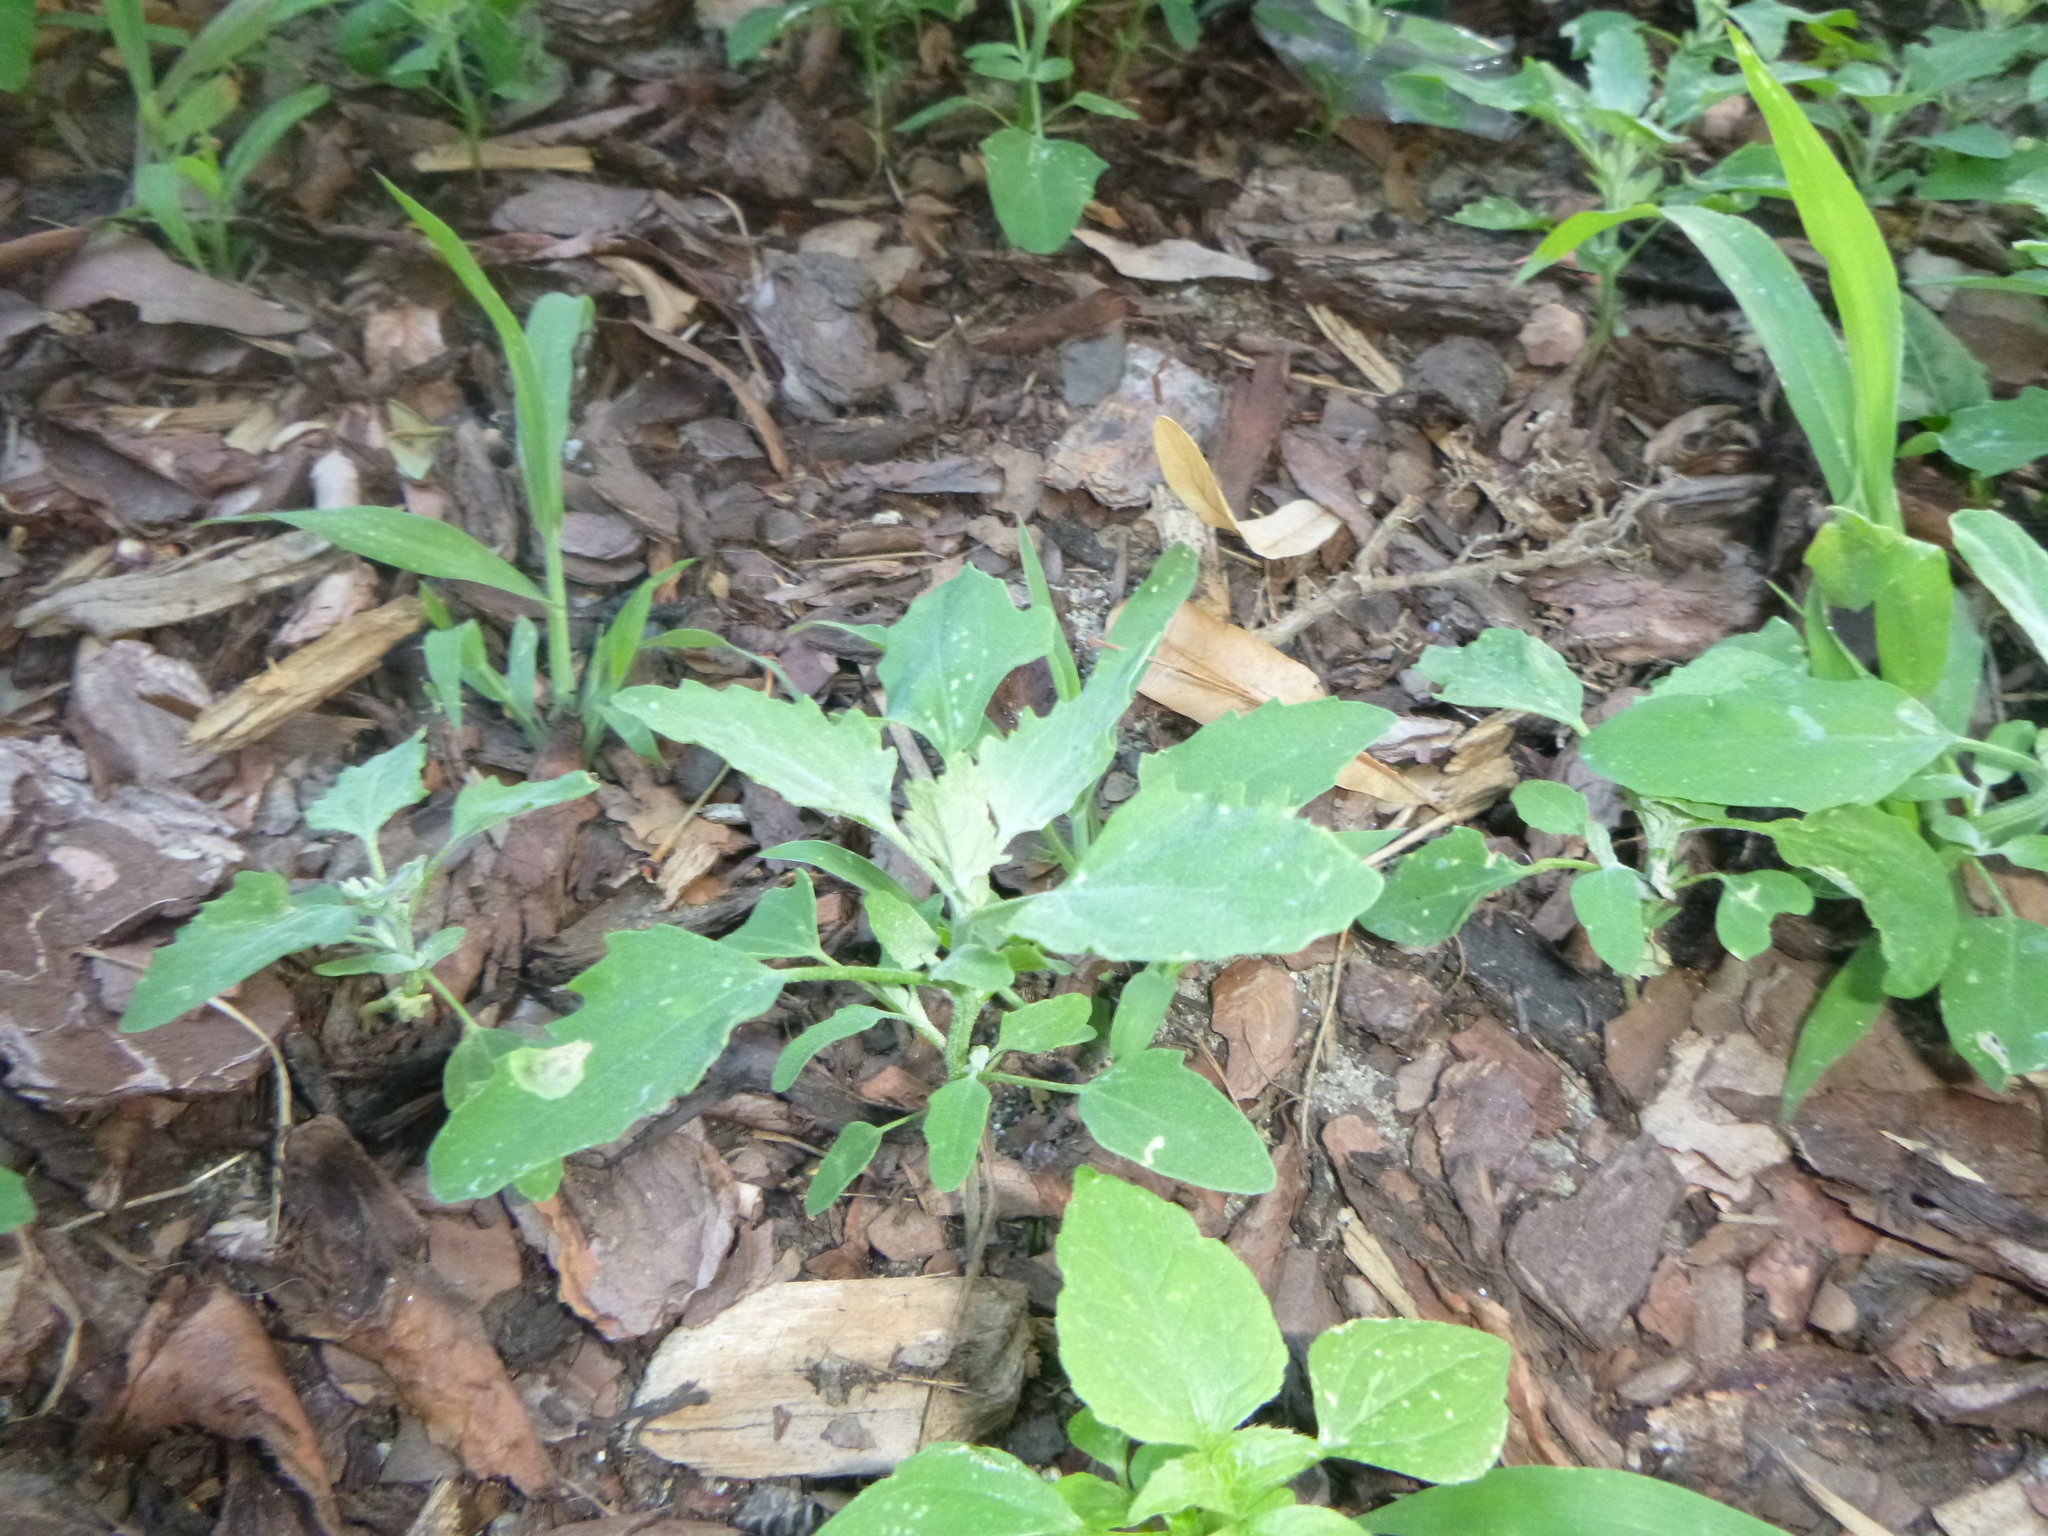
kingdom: Plantae
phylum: Tracheophyta
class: Magnoliopsida
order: Caryophyllales
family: Amaranthaceae
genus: Chenopodium
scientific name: Chenopodium album
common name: Fat-hen
